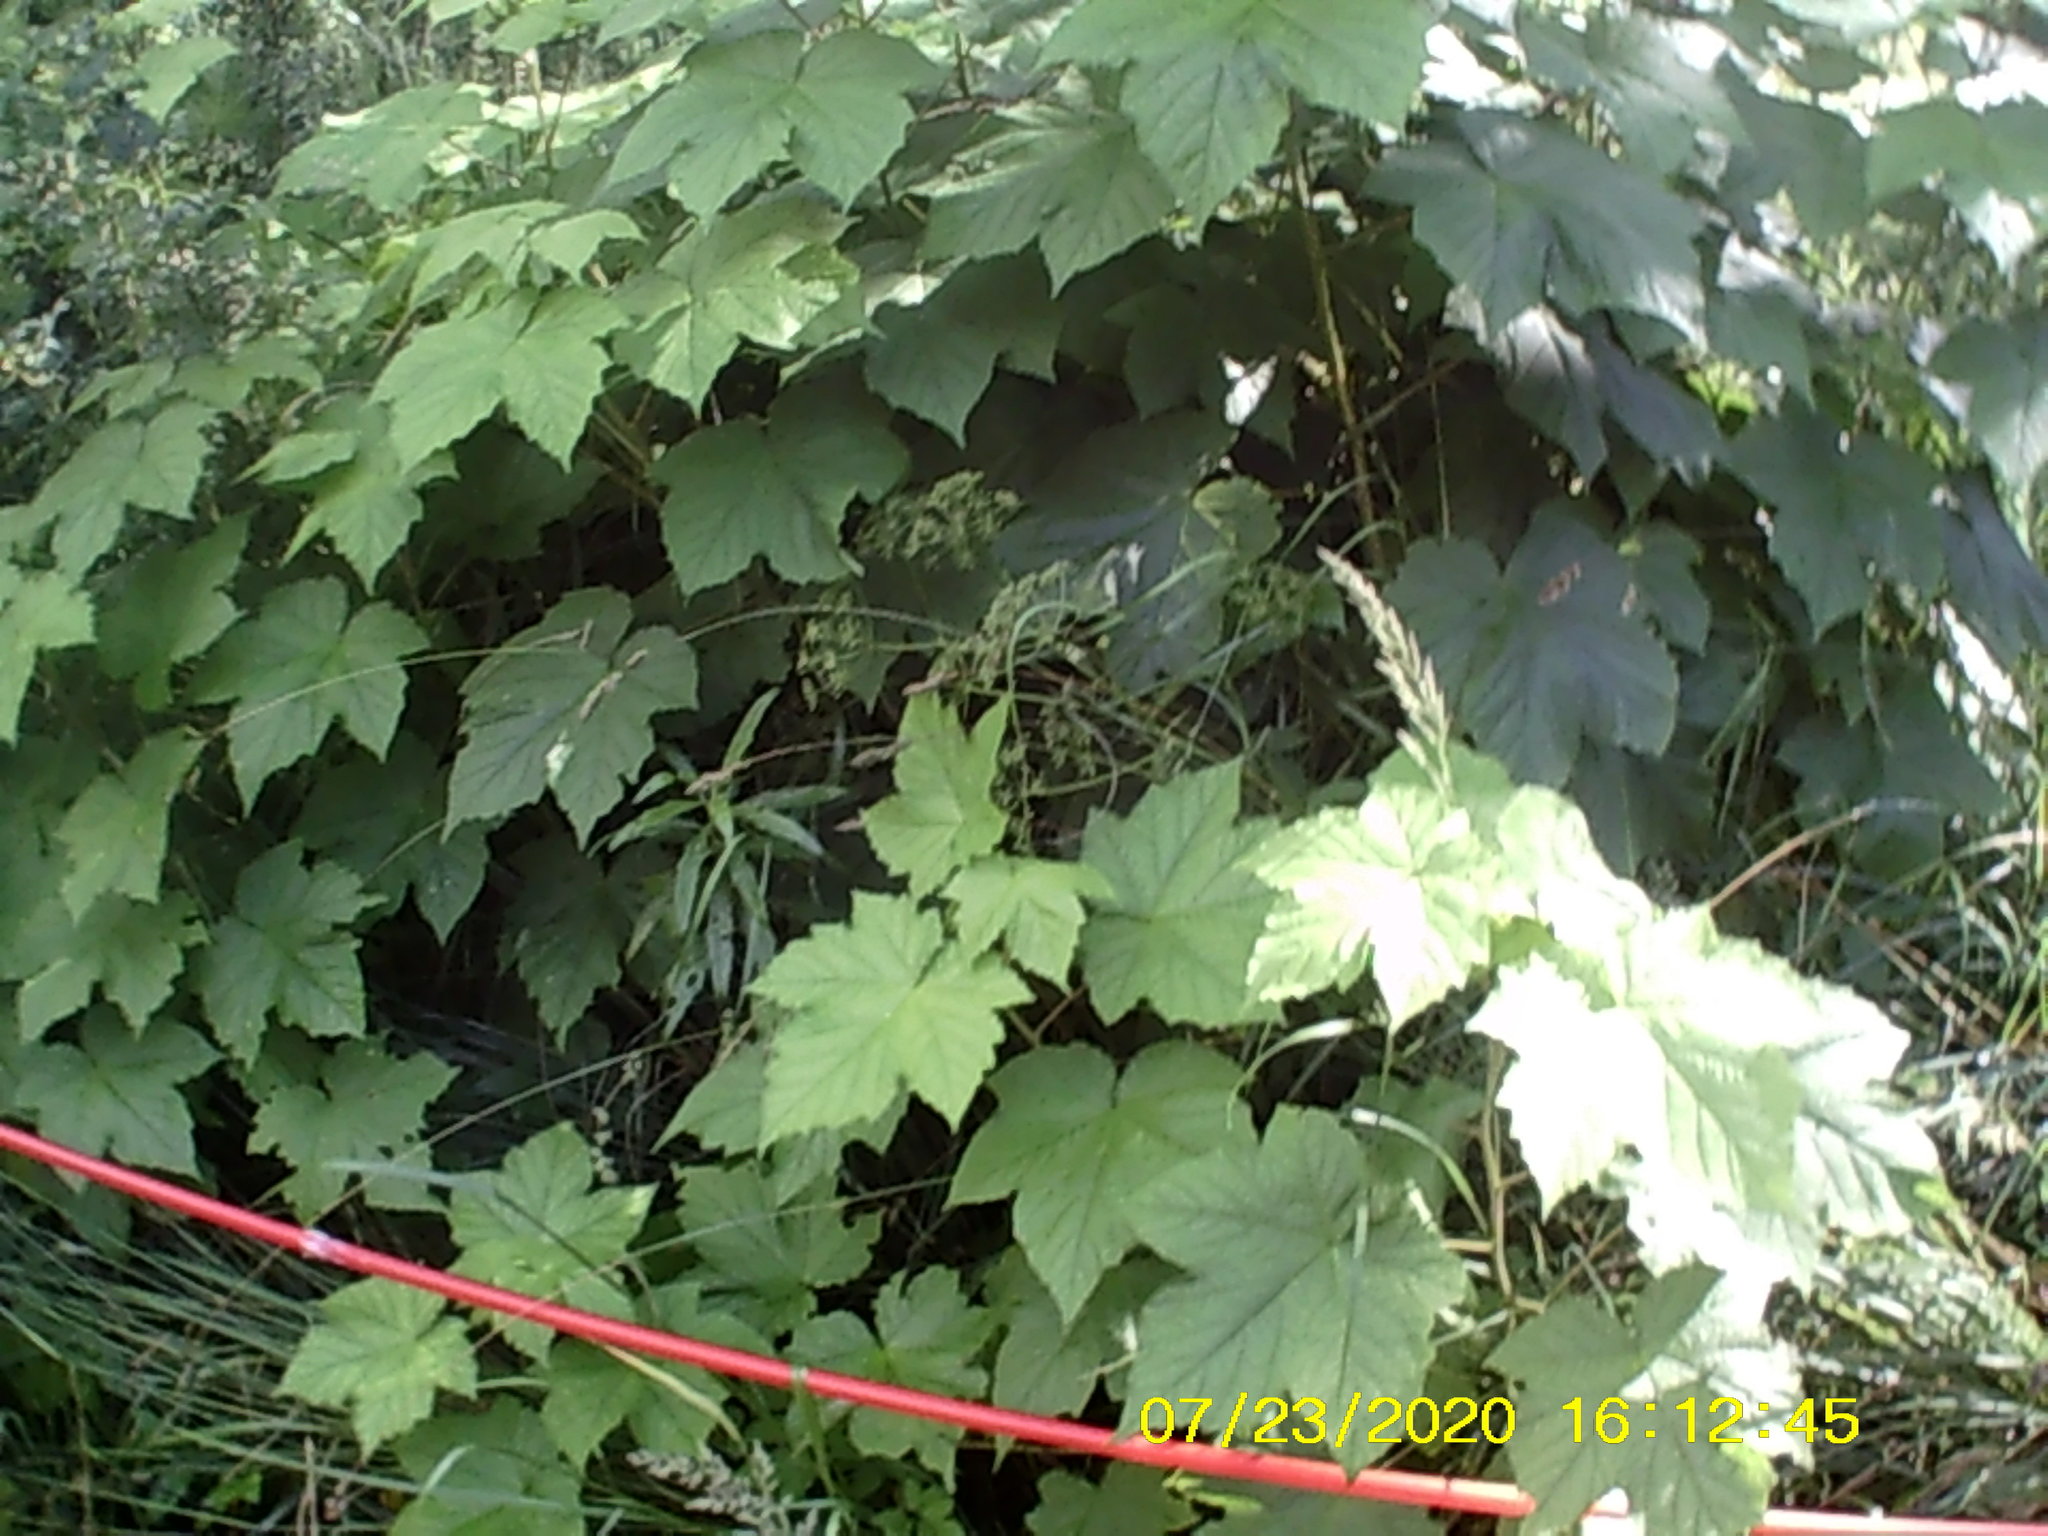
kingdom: Plantae
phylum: Tracheophyta
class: Magnoliopsida
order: Rosales
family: Rosaceae
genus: Rubus
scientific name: Rubus odoratus
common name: Purple-flowered raspberry
